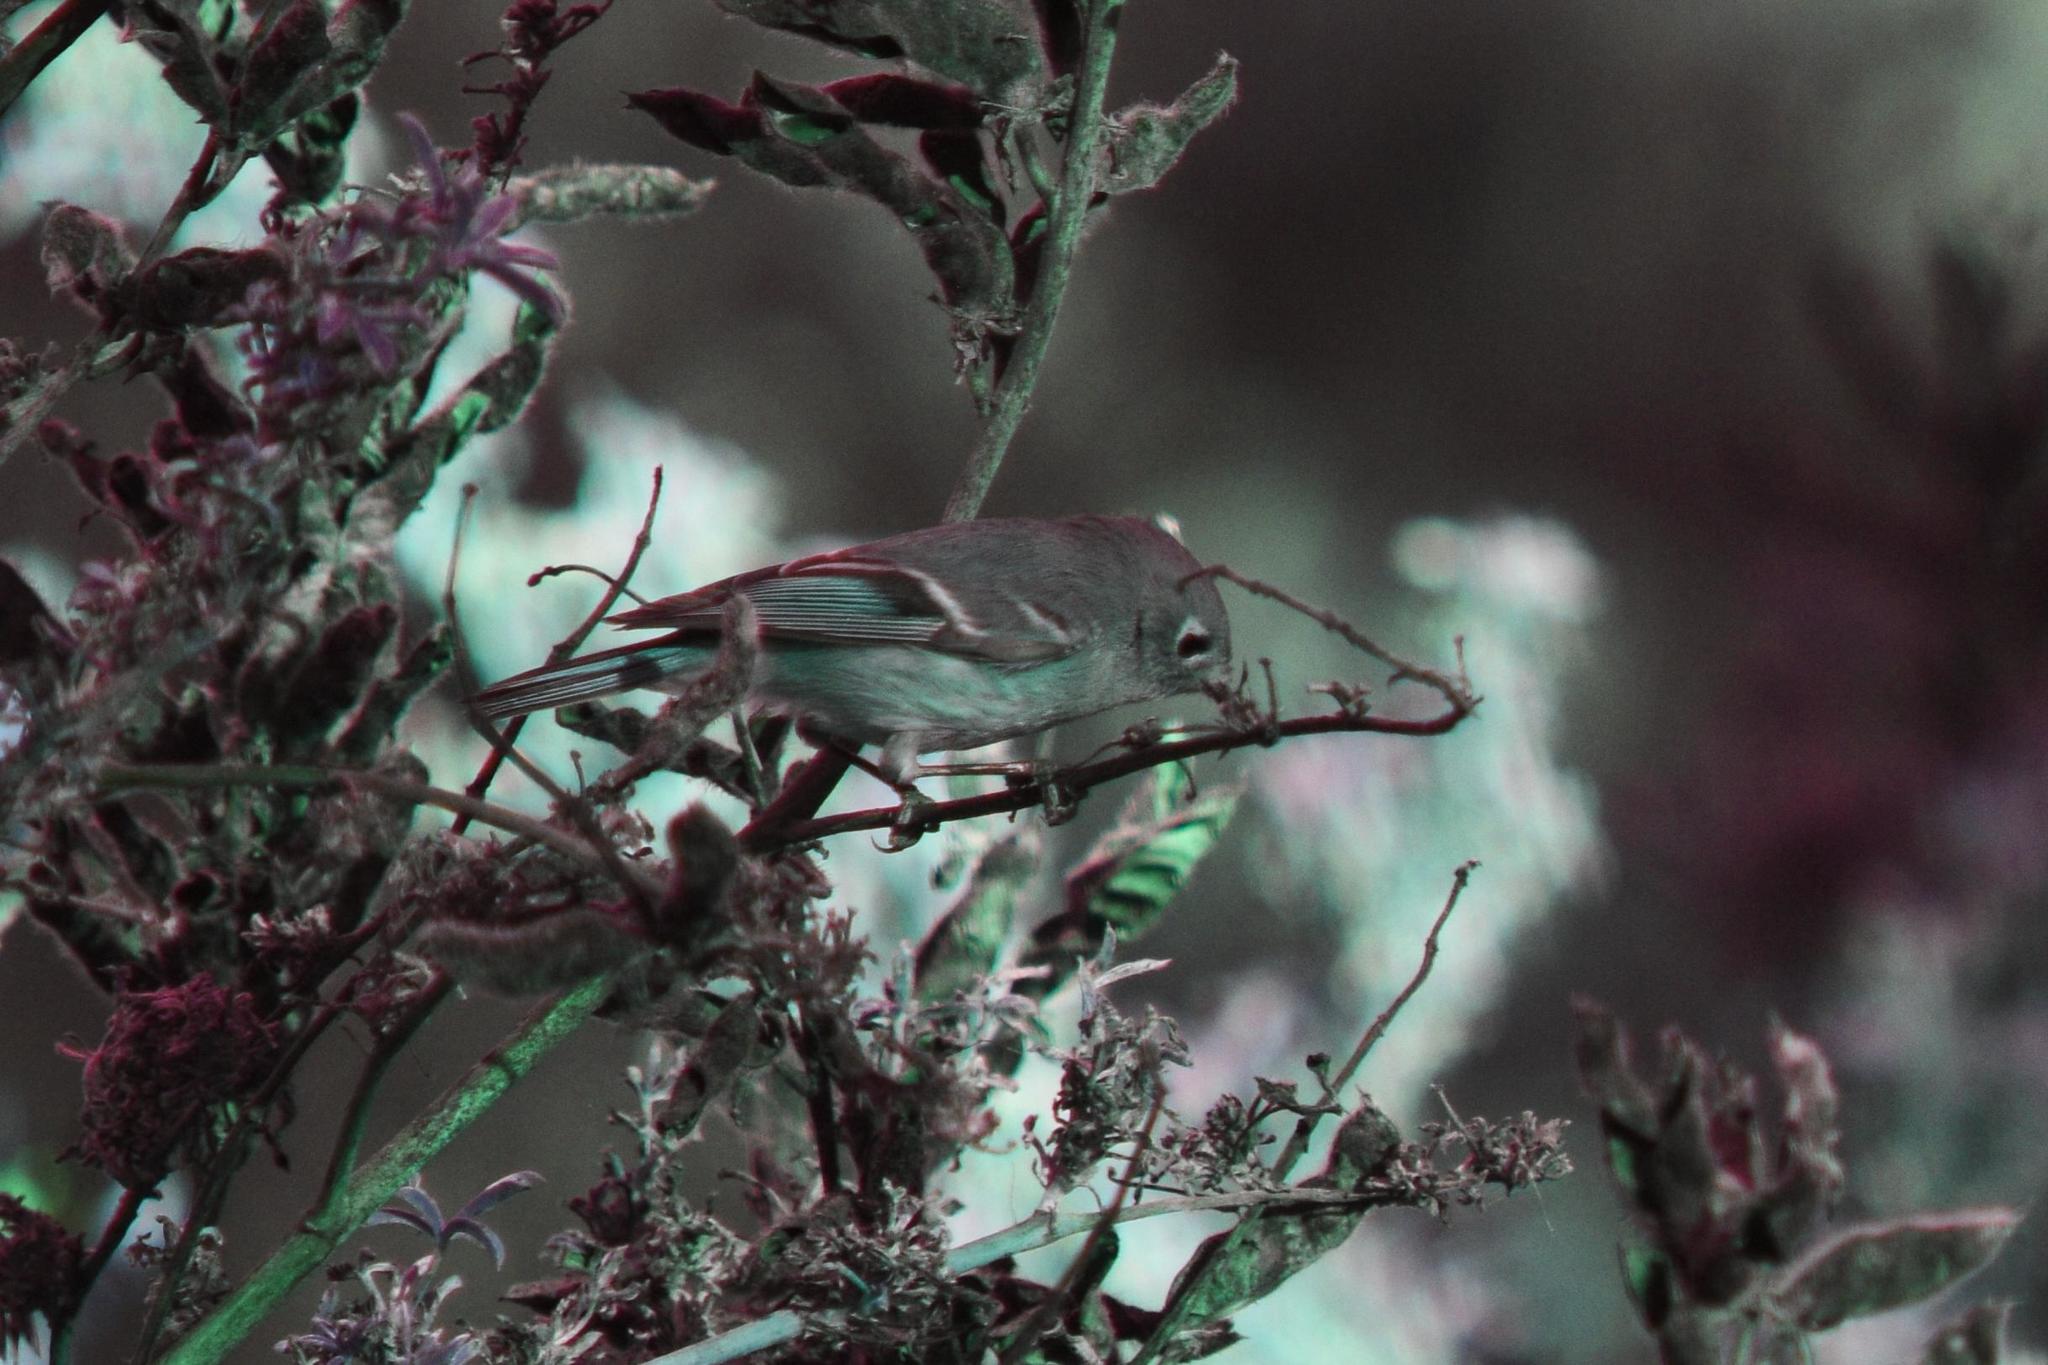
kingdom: Animalia
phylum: Chordata
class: Aves
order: Passeriformes
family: Regulidae
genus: Regulus
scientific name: Regulus calendula
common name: Ruby-crowned kinglet
